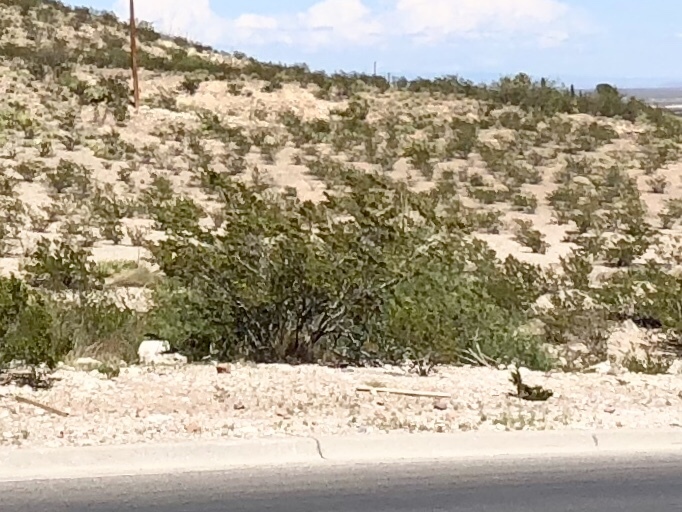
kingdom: Plantae
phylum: Tracheophyta
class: Magnoliopsida
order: Zygophyllales
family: Zygophyllaceae
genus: Larrea
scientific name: Larrea tridentata
